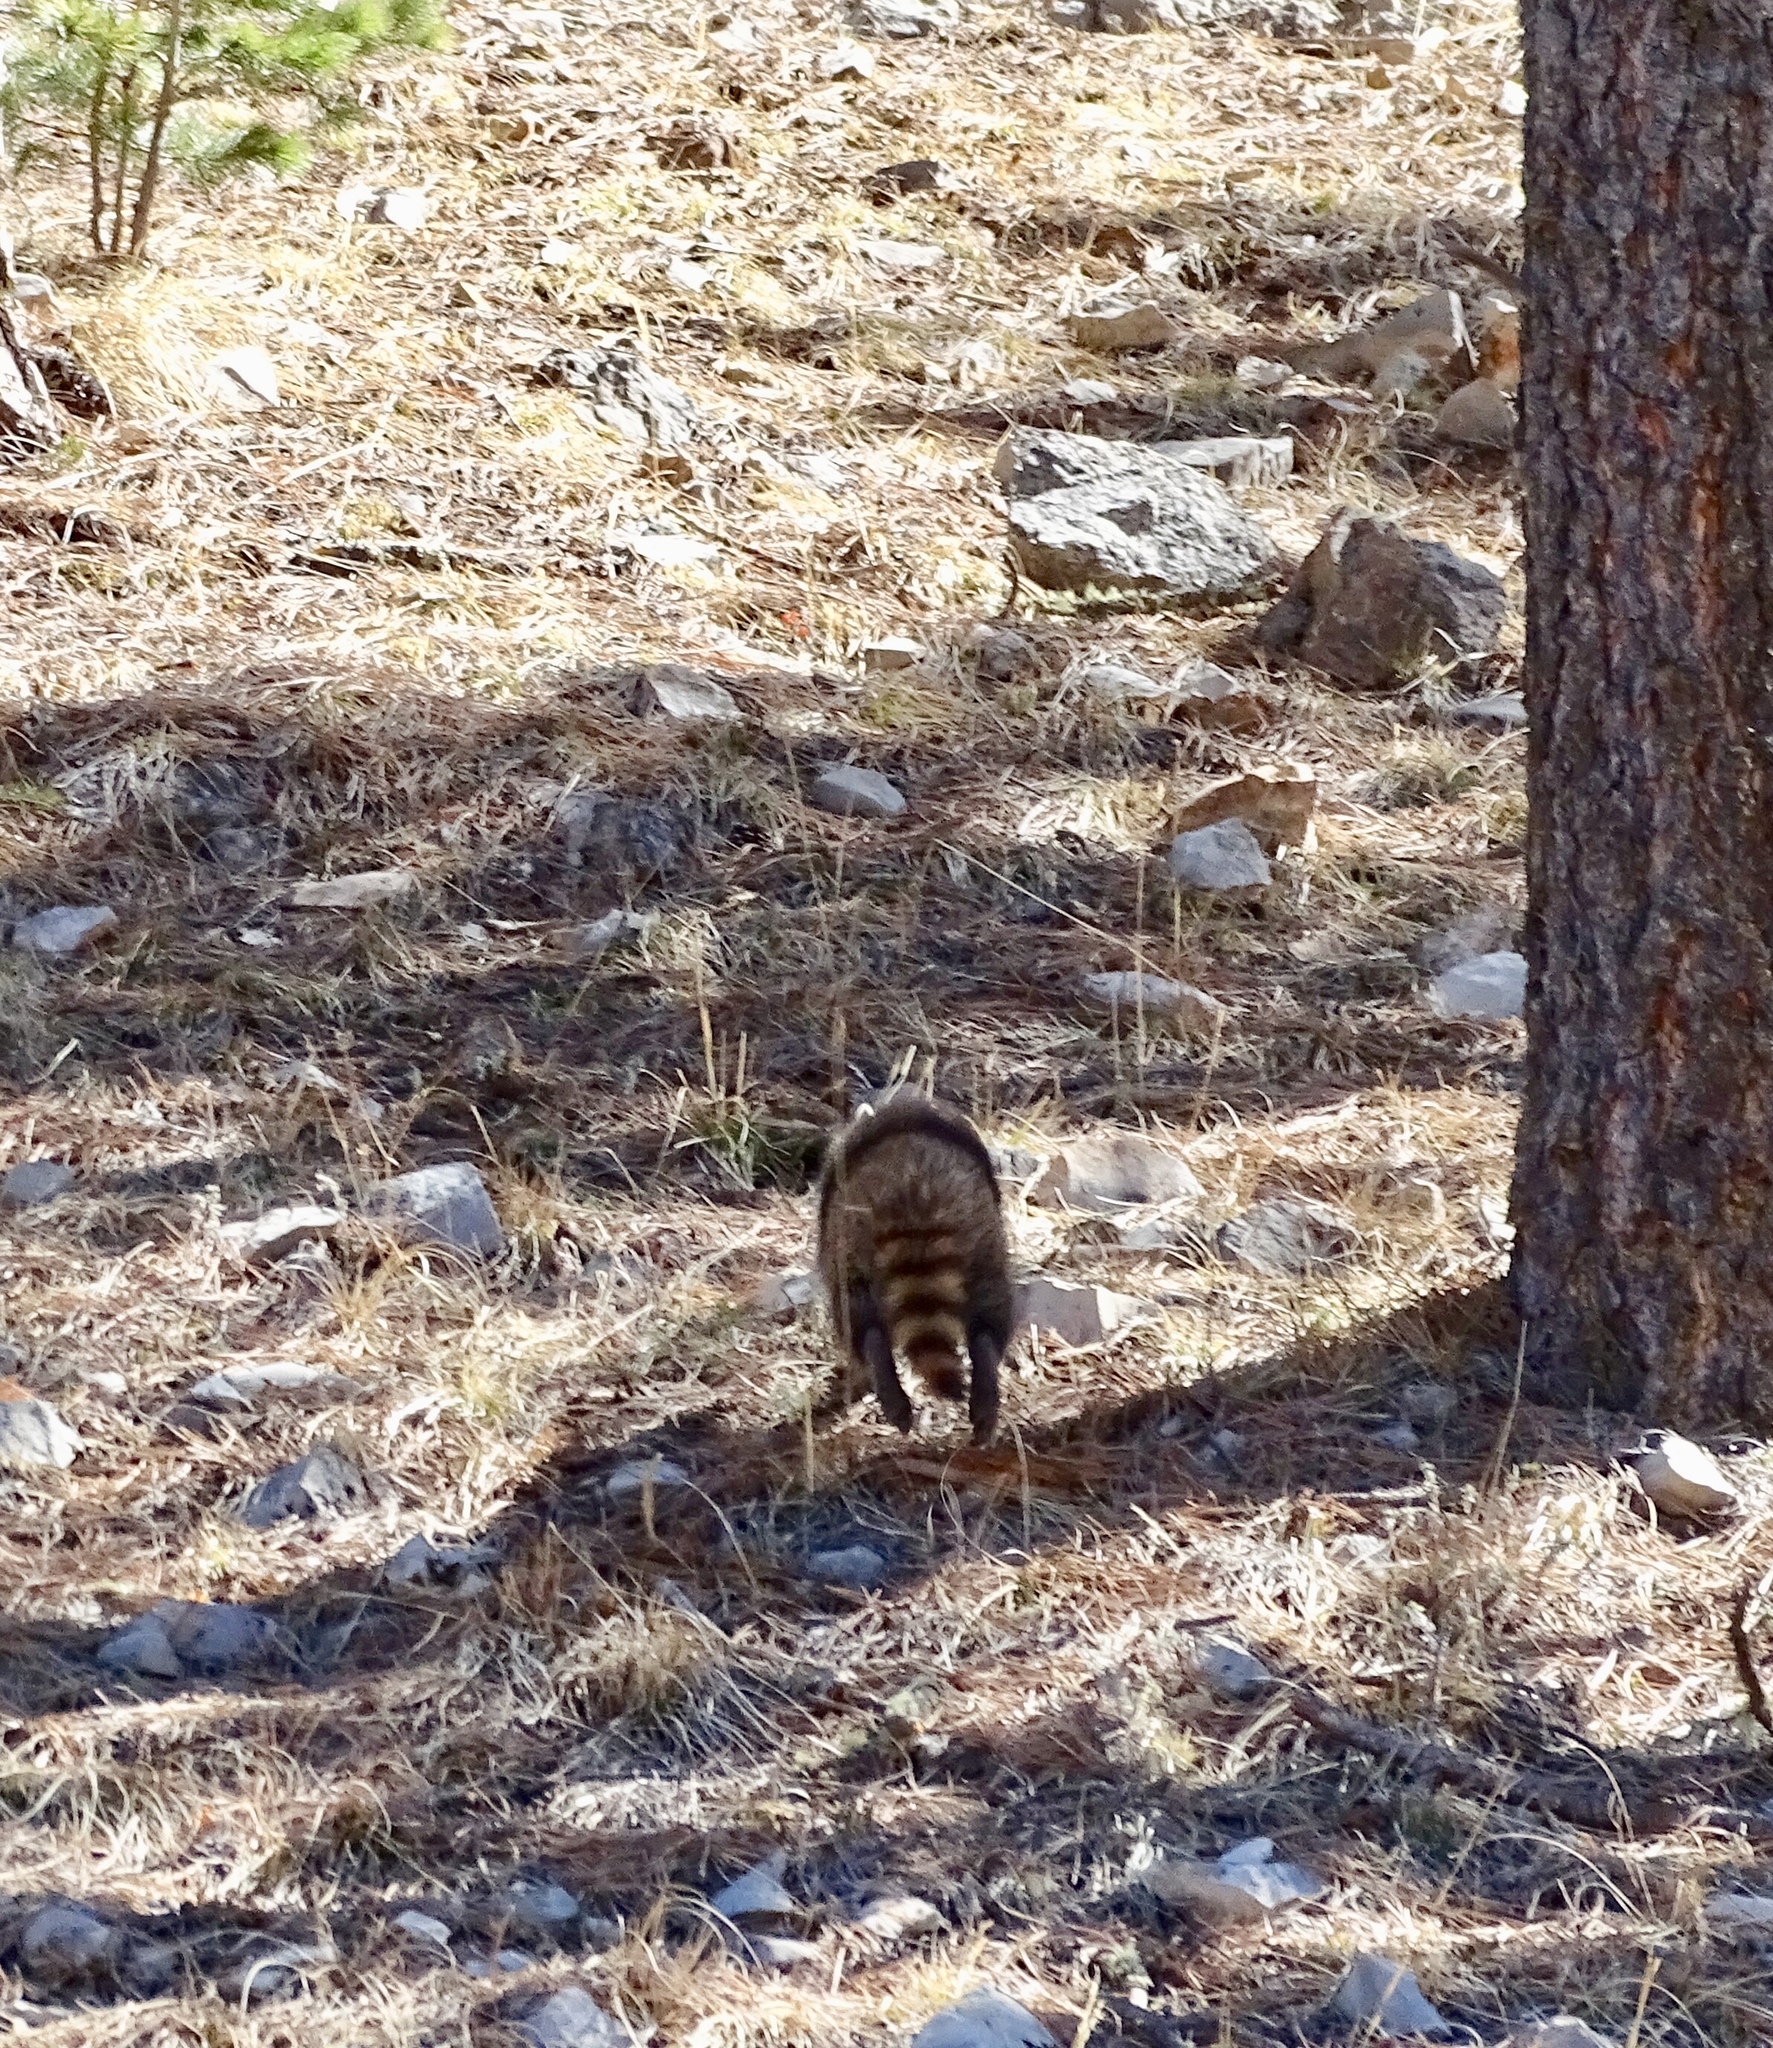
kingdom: Animalia
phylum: Chordata
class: Mammalia
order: Carnivora
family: Procyonidae
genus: Procyon
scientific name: Procyon lotor
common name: Raccoon
